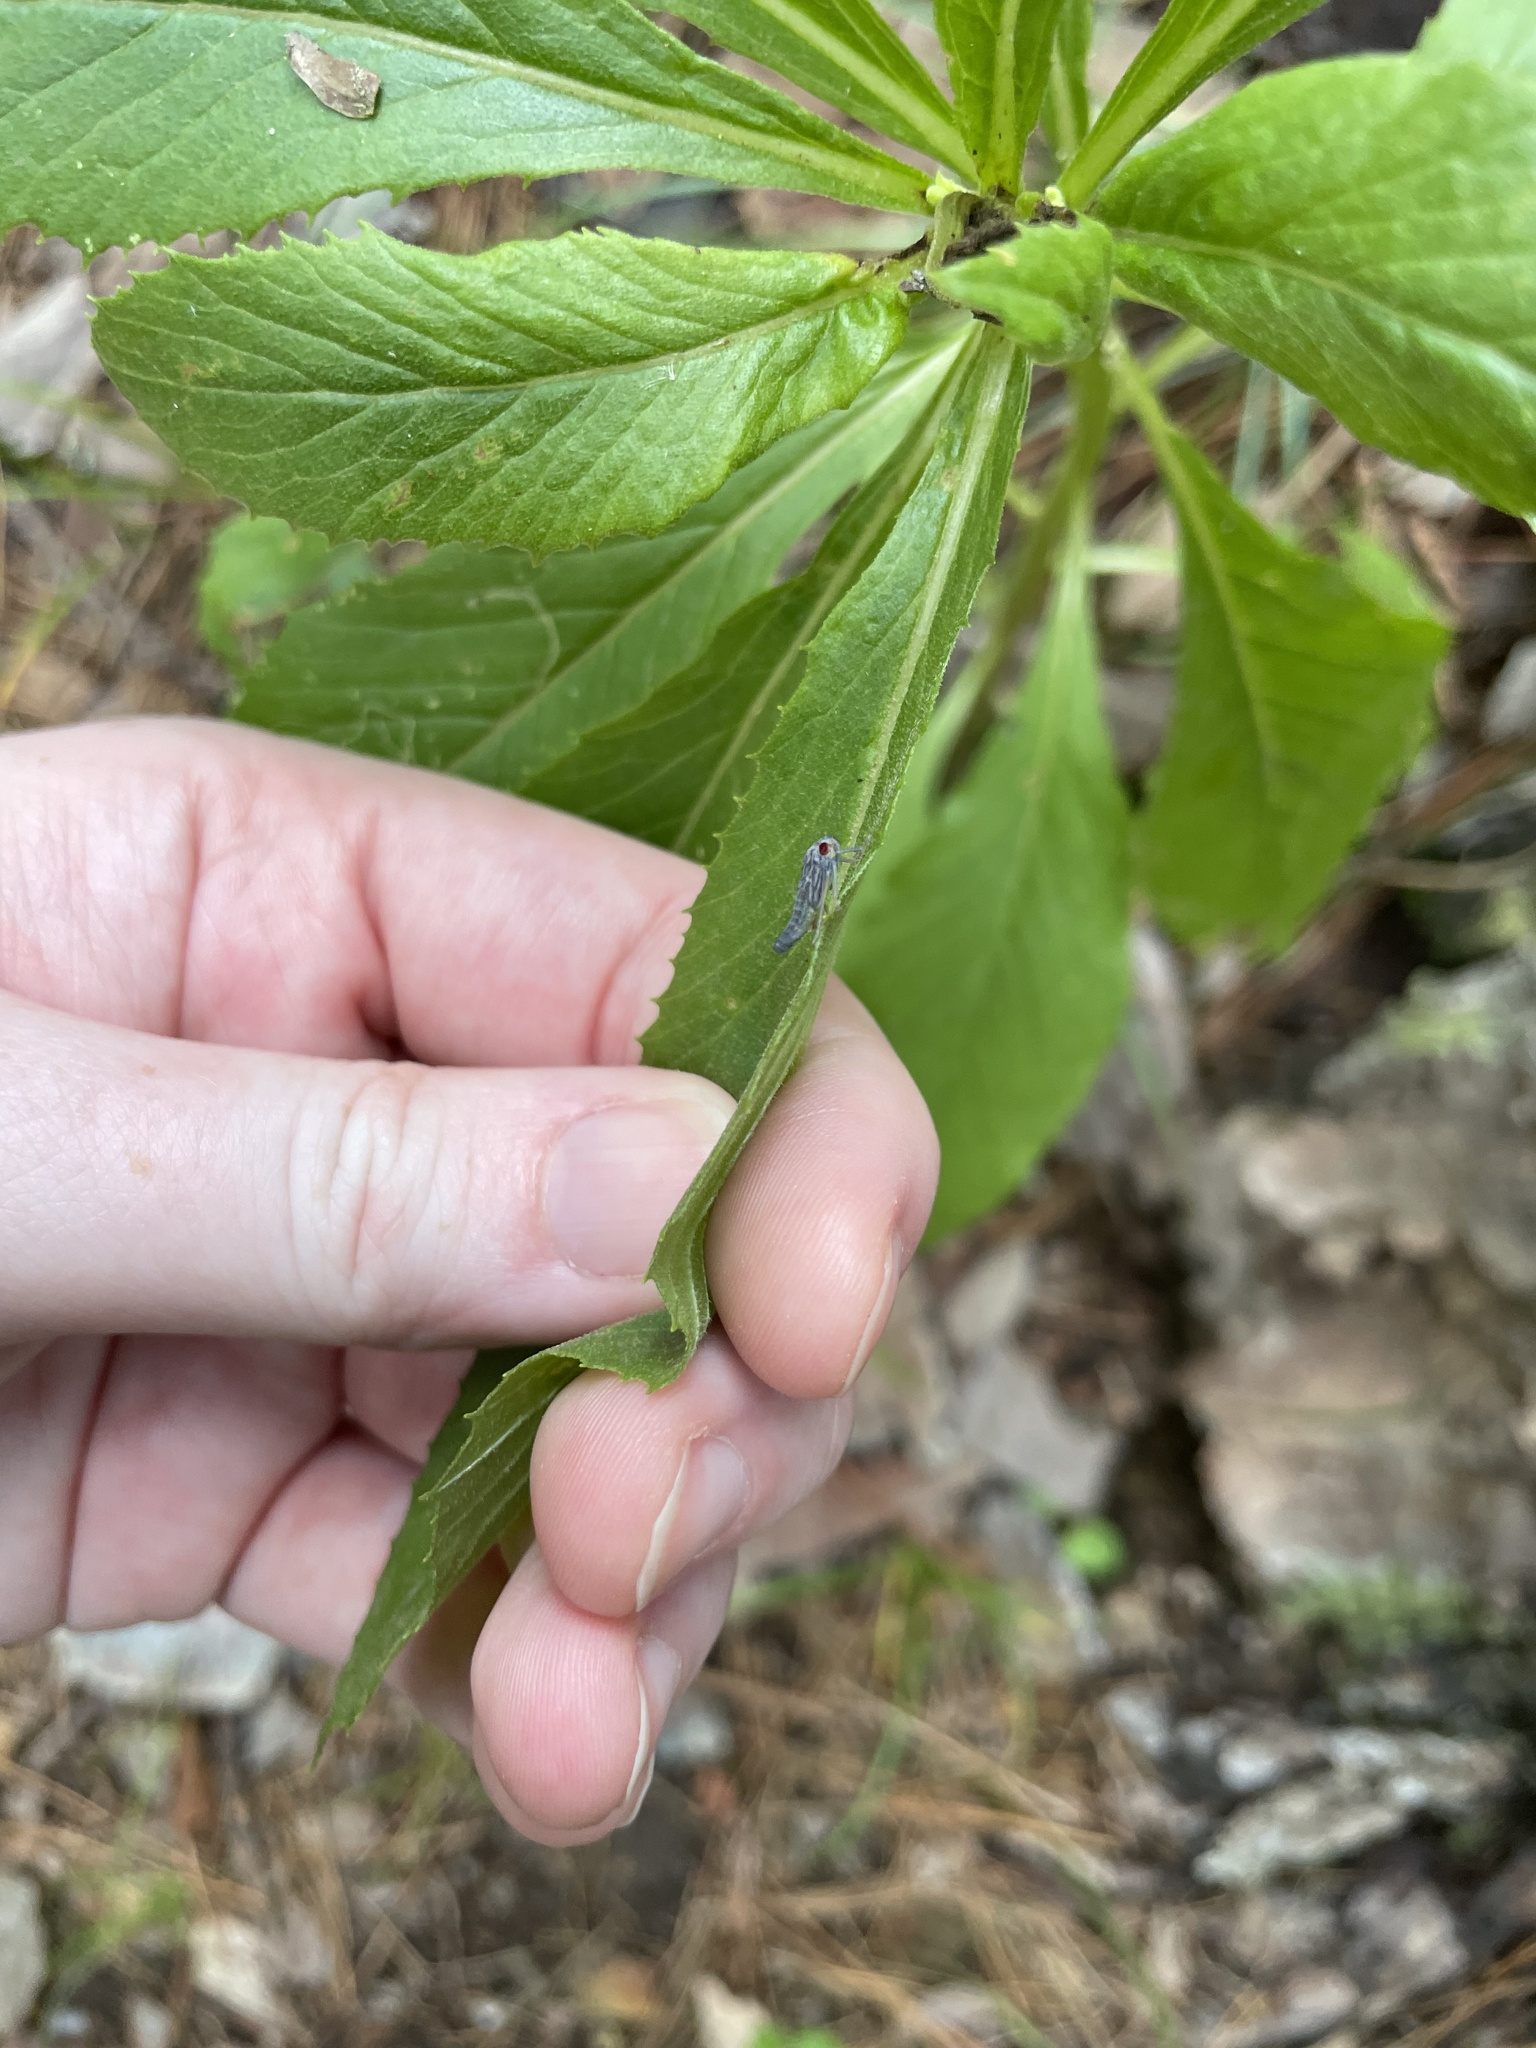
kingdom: Animalia
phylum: Arthropoda
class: Insecta
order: Hemiptera
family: Cicadellidae
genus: Oncometopia
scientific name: Oncometopia orbona
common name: Broad-headed sharpshooter
